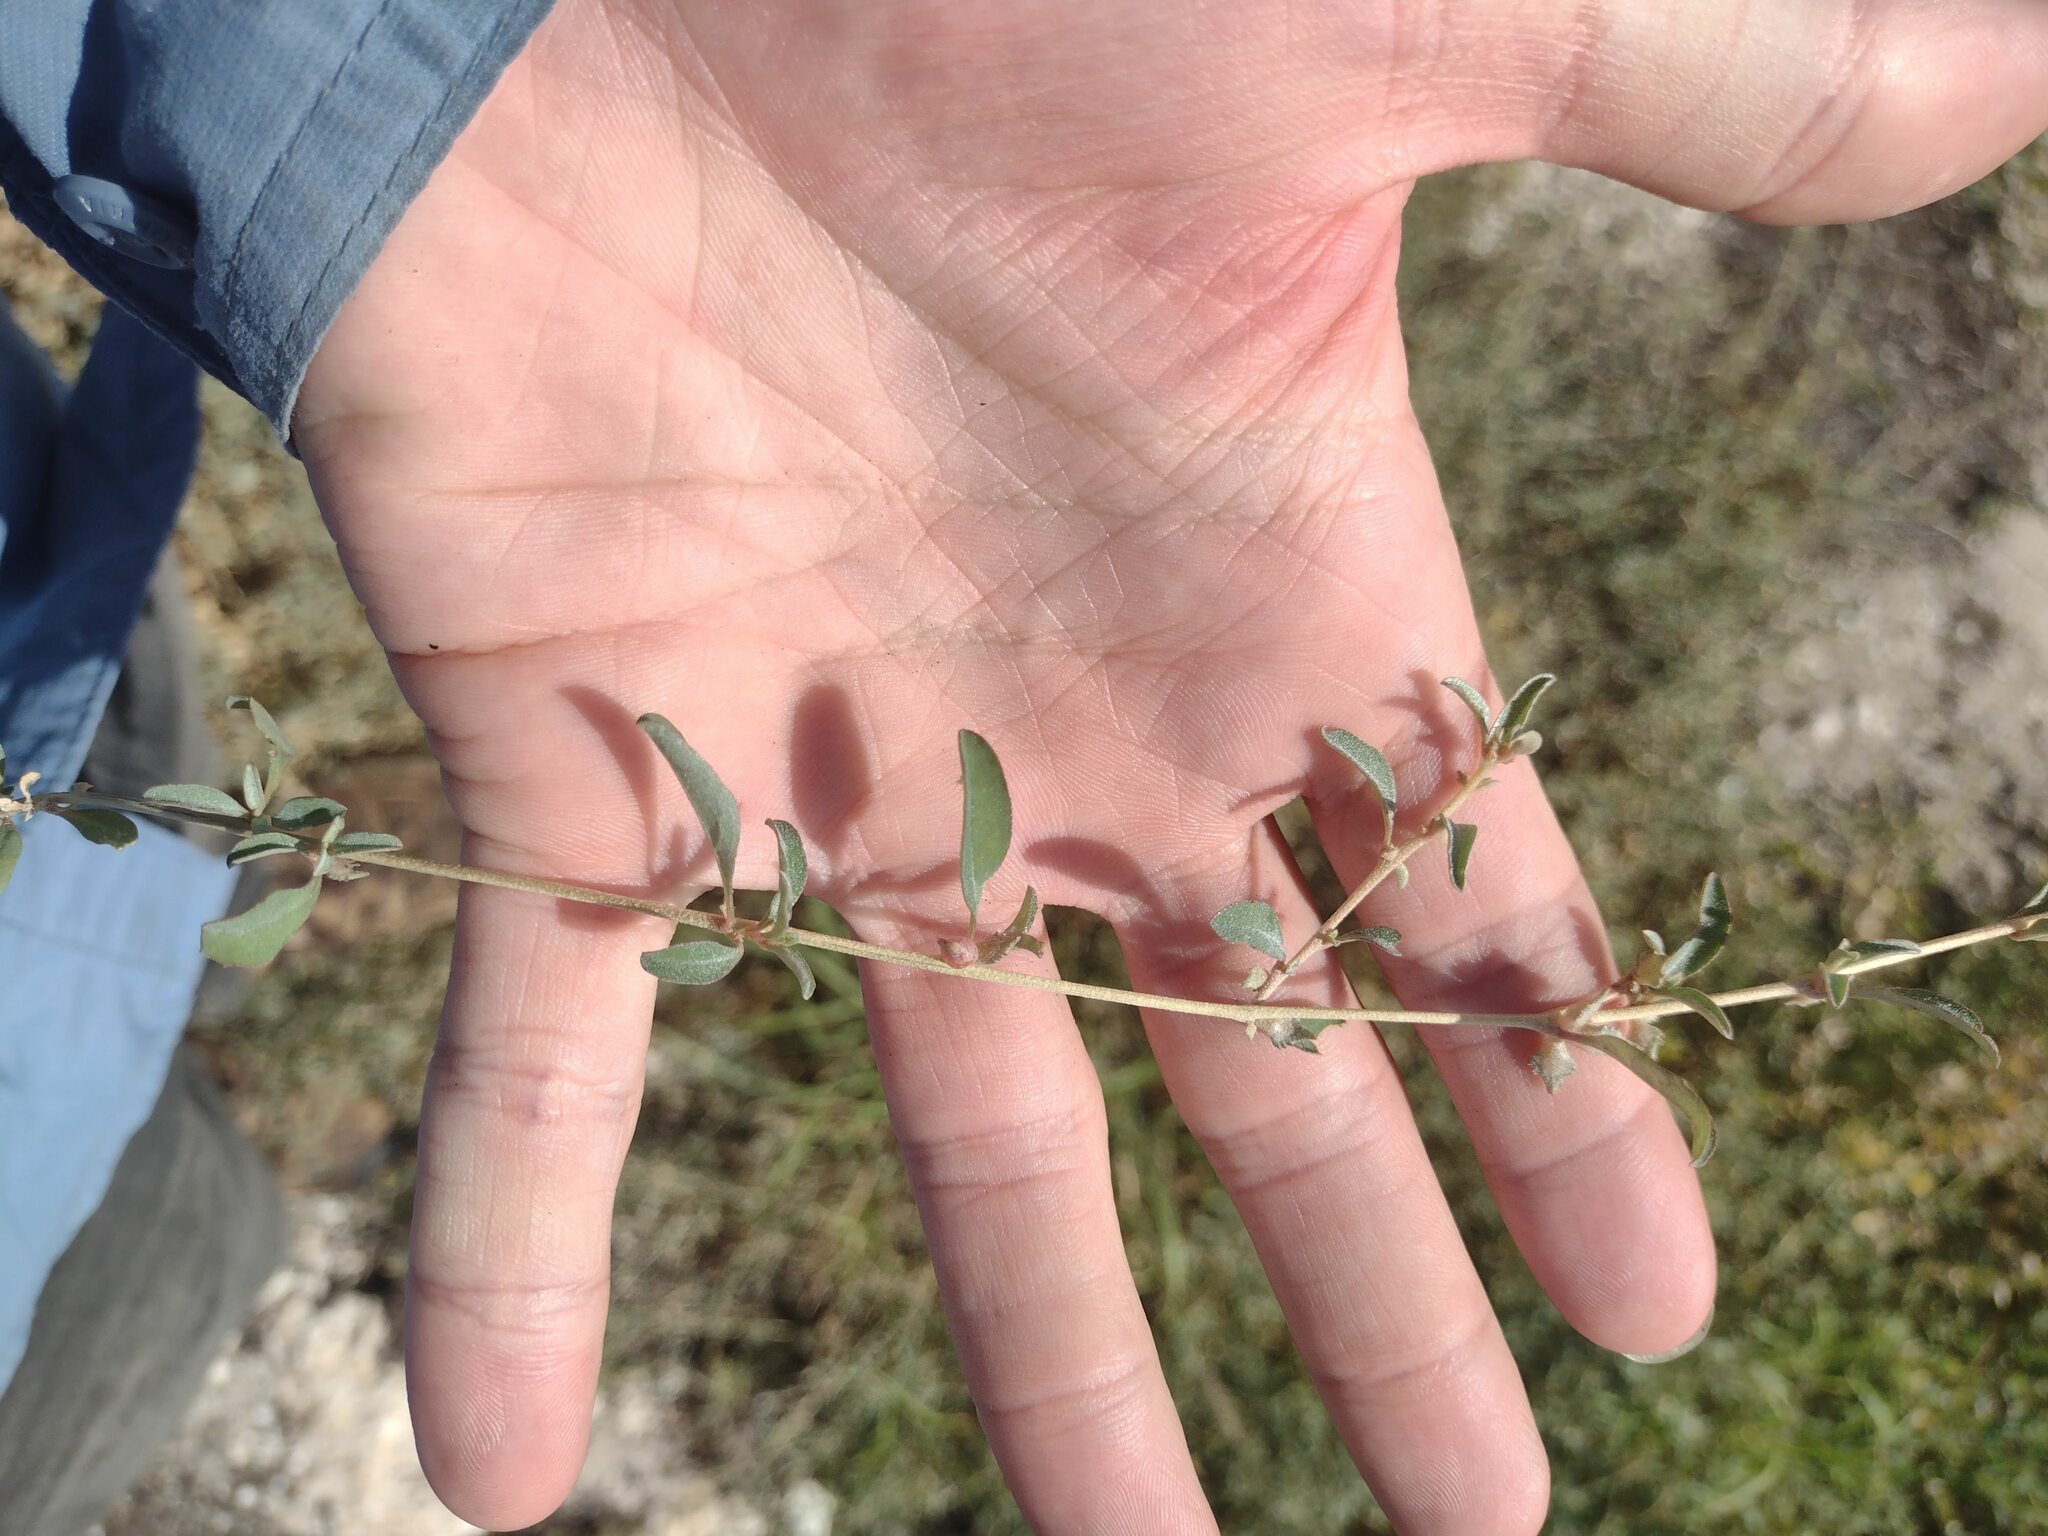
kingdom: Plantae
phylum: Tracheophyta
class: Magnoliopsida
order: Caryophyllales
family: Amaranthaceae
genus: Atriplex
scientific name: Atriplex semibaccata
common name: Australian saltbush
